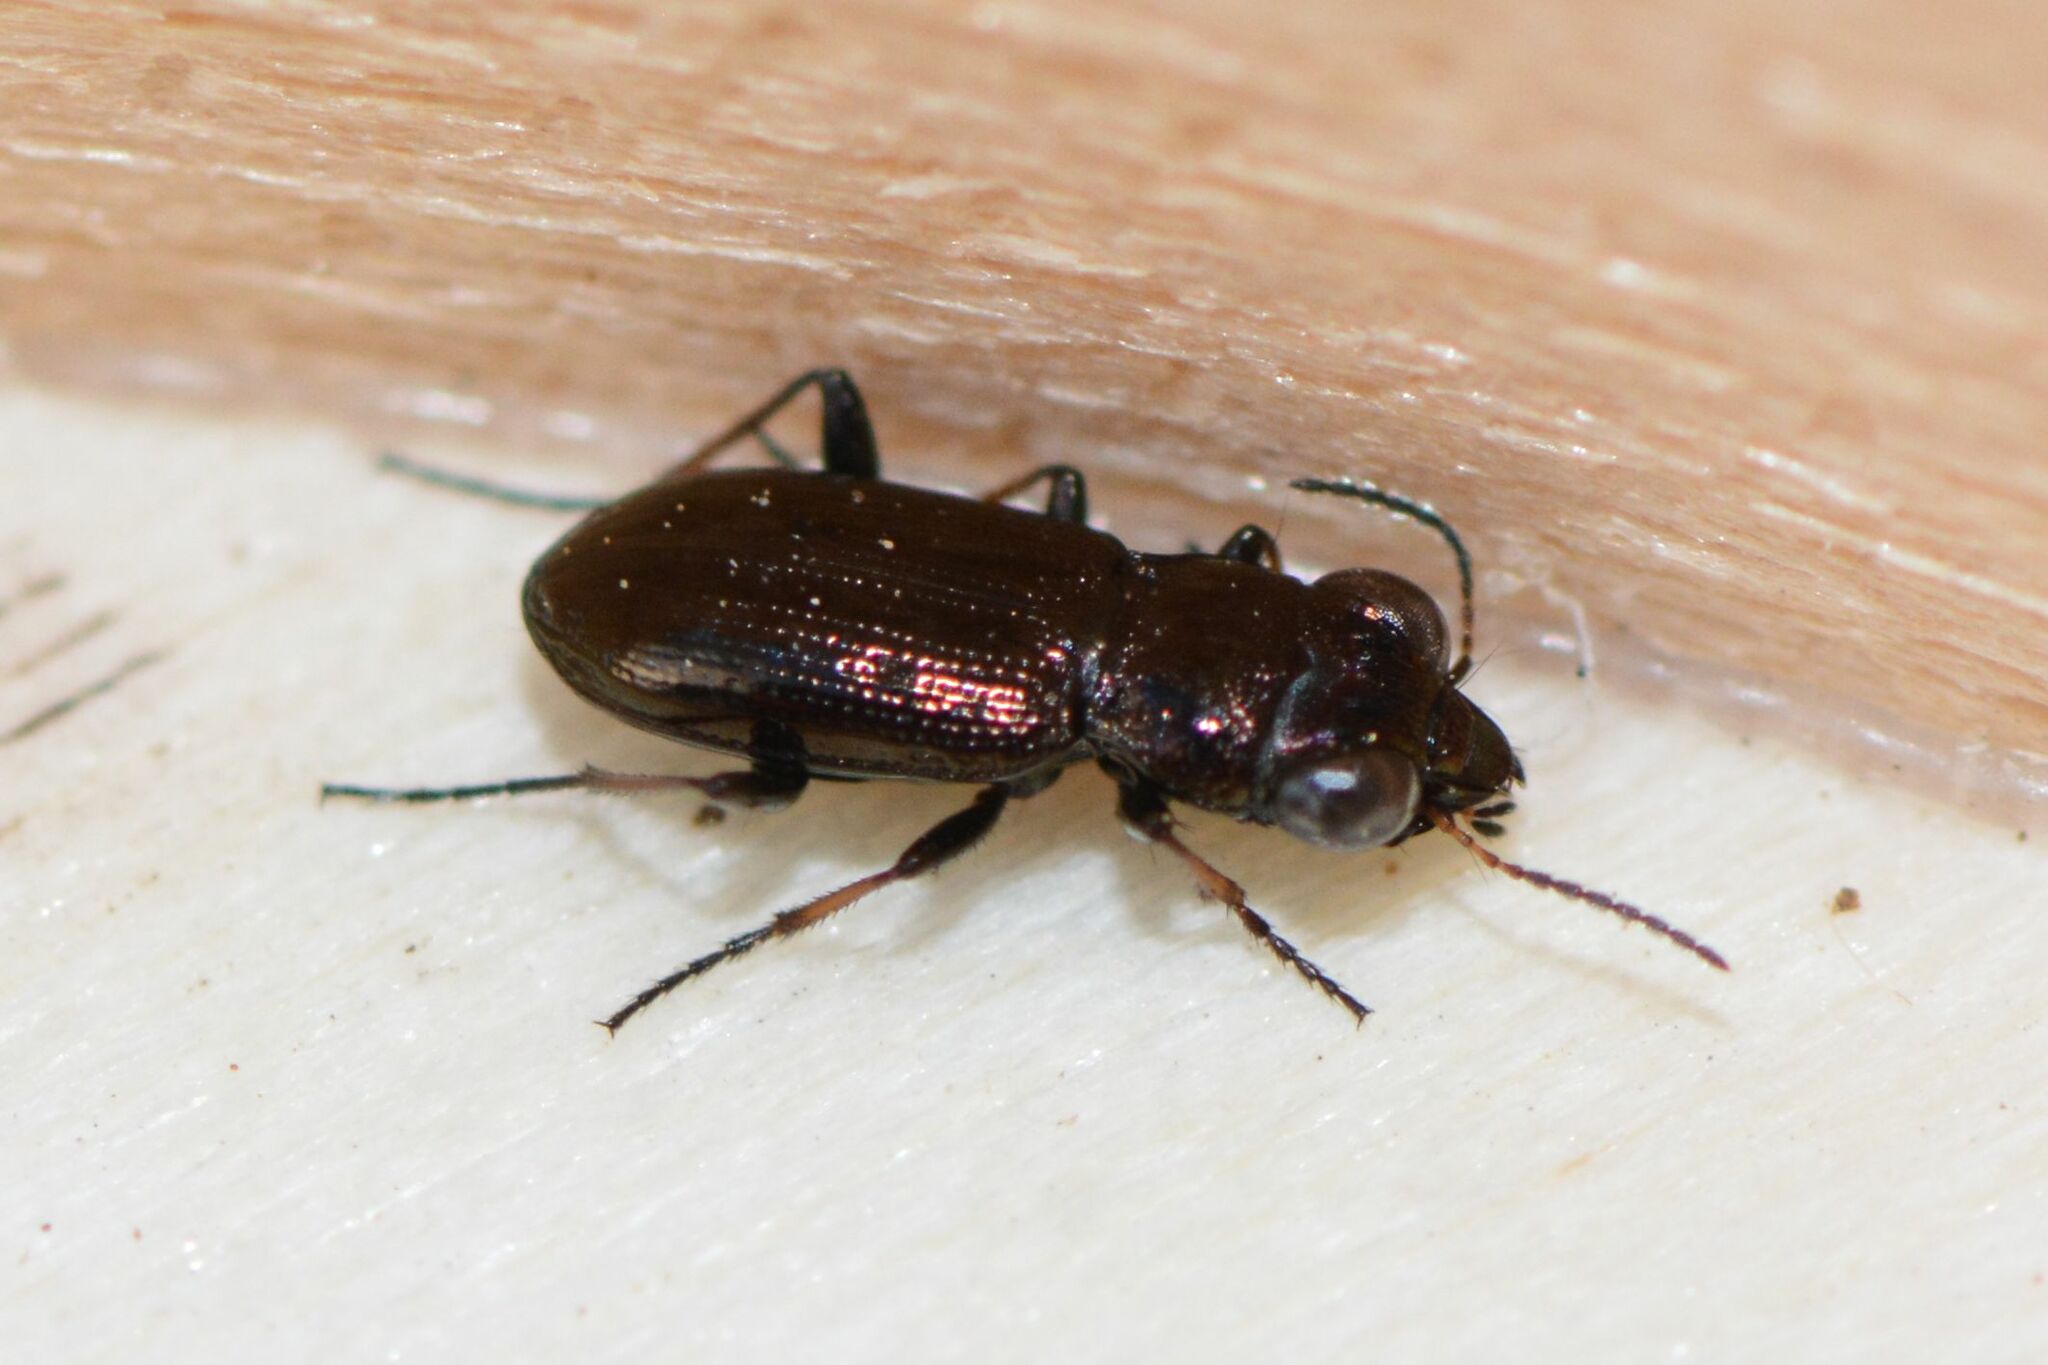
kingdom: Animalia
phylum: Arthropoda
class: Insecta
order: Coleoptera
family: Carabidae
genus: Notiophilus
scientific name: Notiophilus palustris
